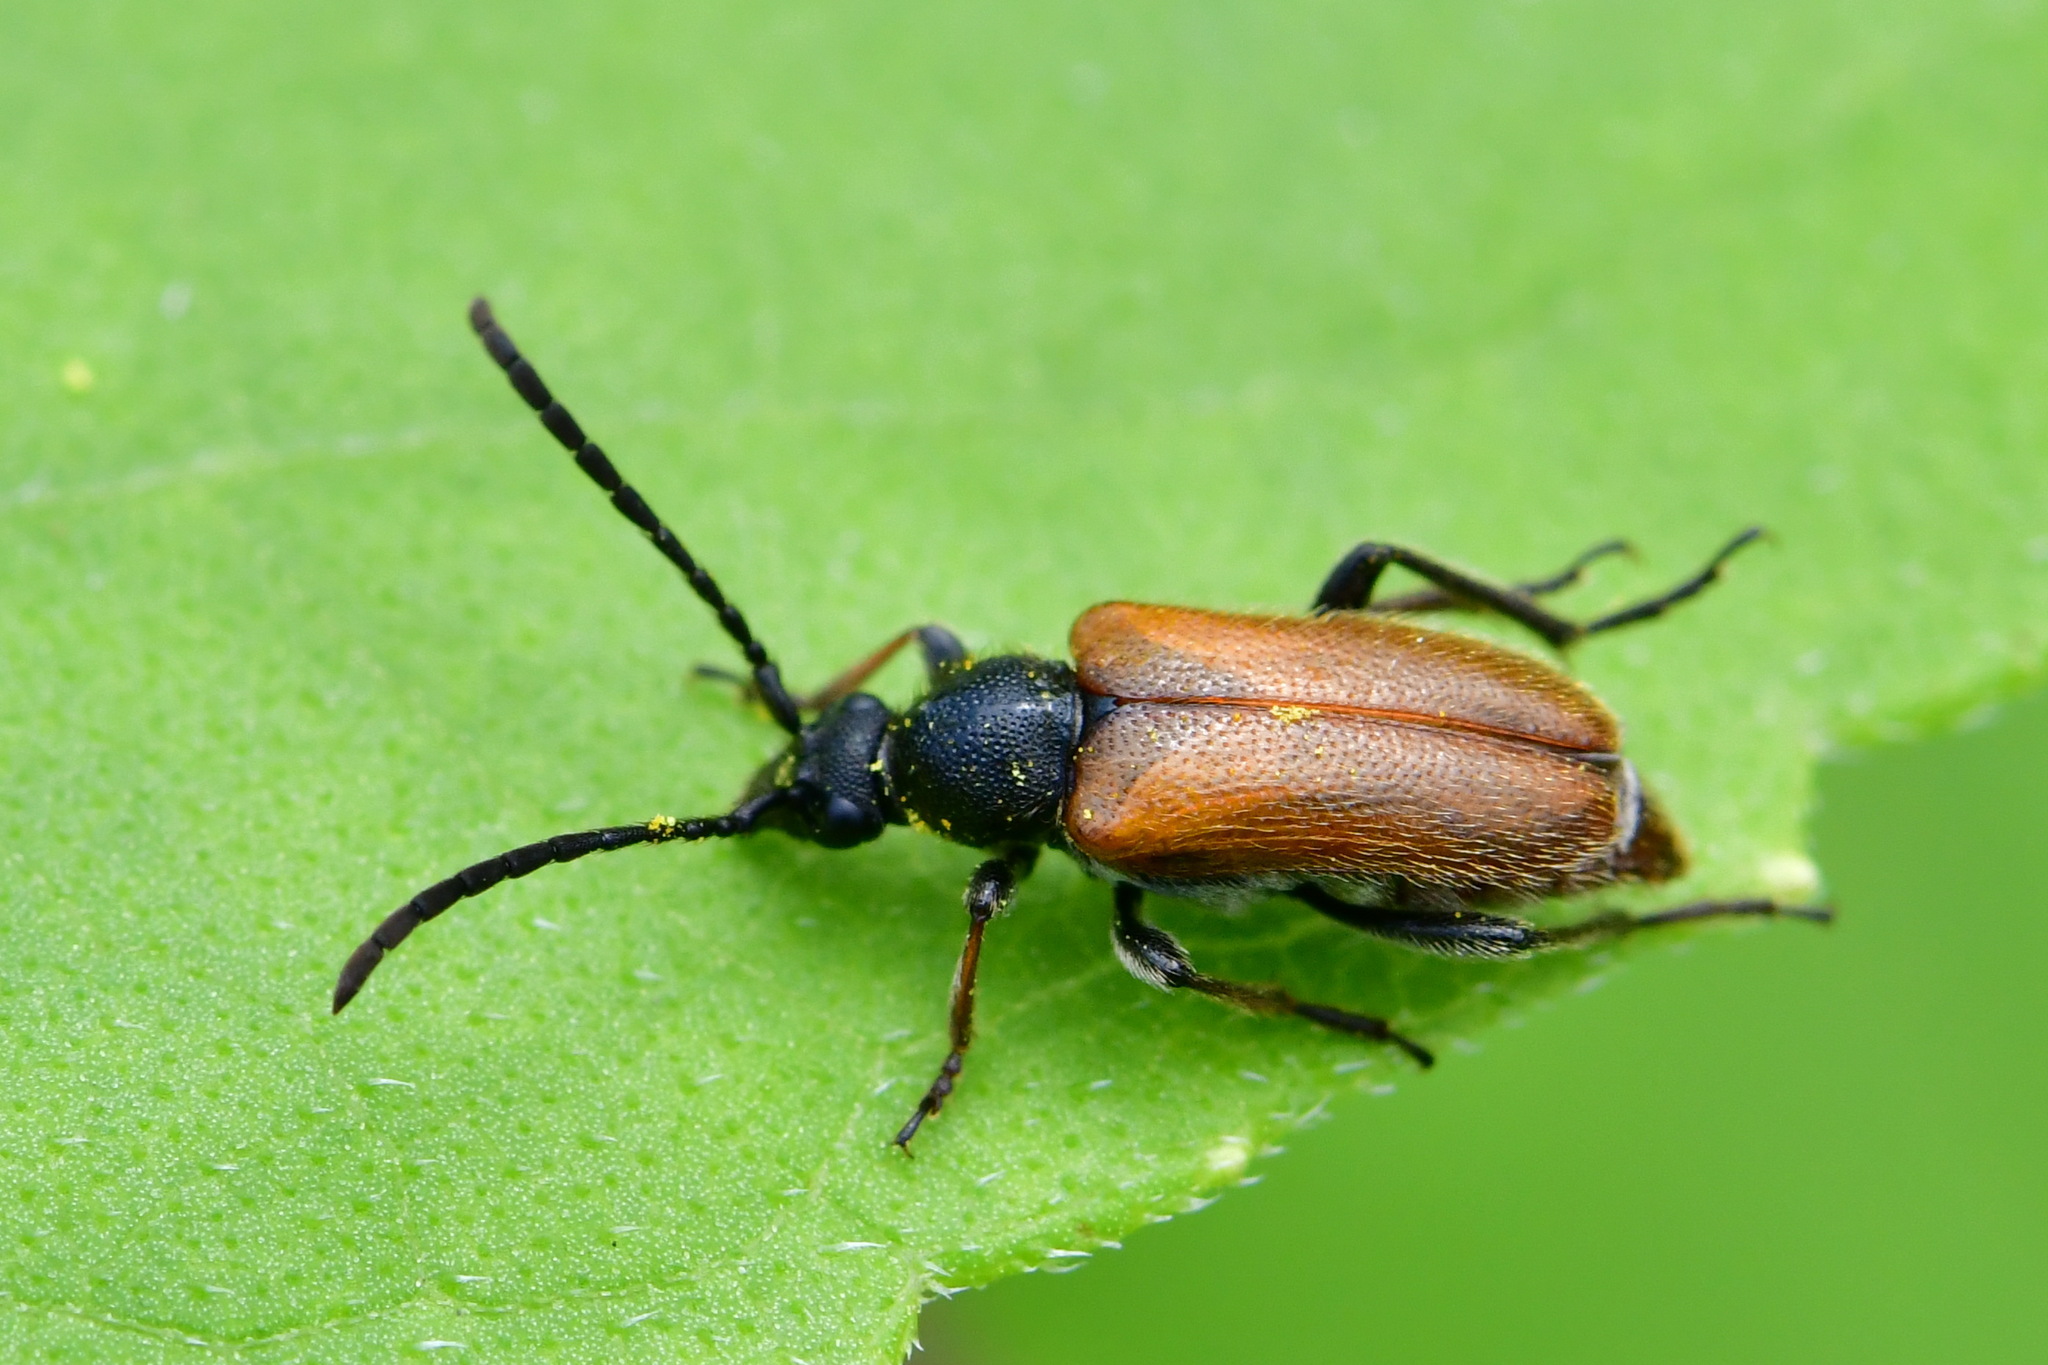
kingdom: Animalia
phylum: Arthropoda
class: Insecta
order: Coleoptera
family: Cerambycidae
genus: Pseudovadonia
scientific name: Pseudovadonia livida
